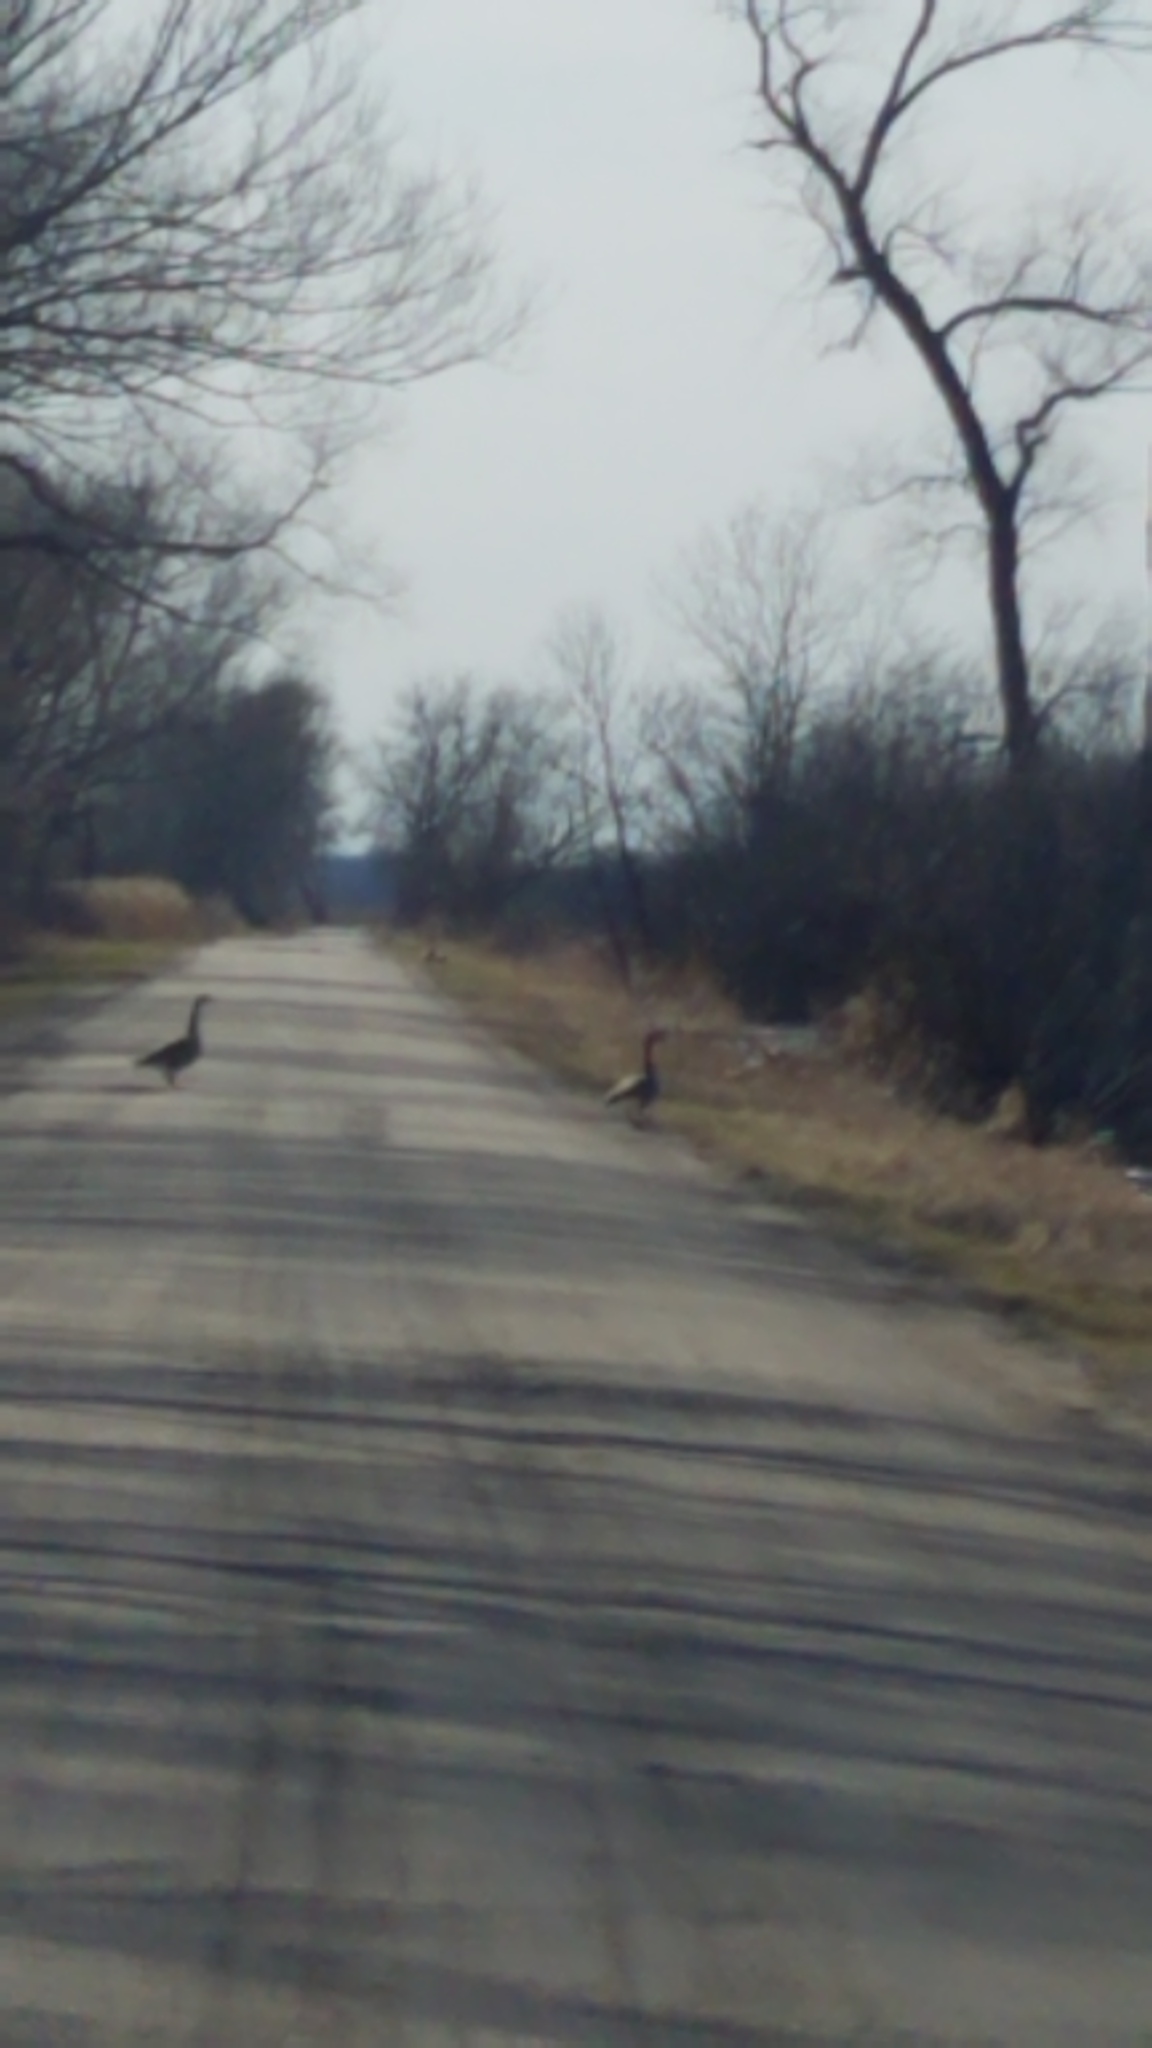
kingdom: Animalia
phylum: Chordata
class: Aves
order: Anseriformes
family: Anatidae
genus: Branta
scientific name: Branta canadensis
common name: Canada goose
